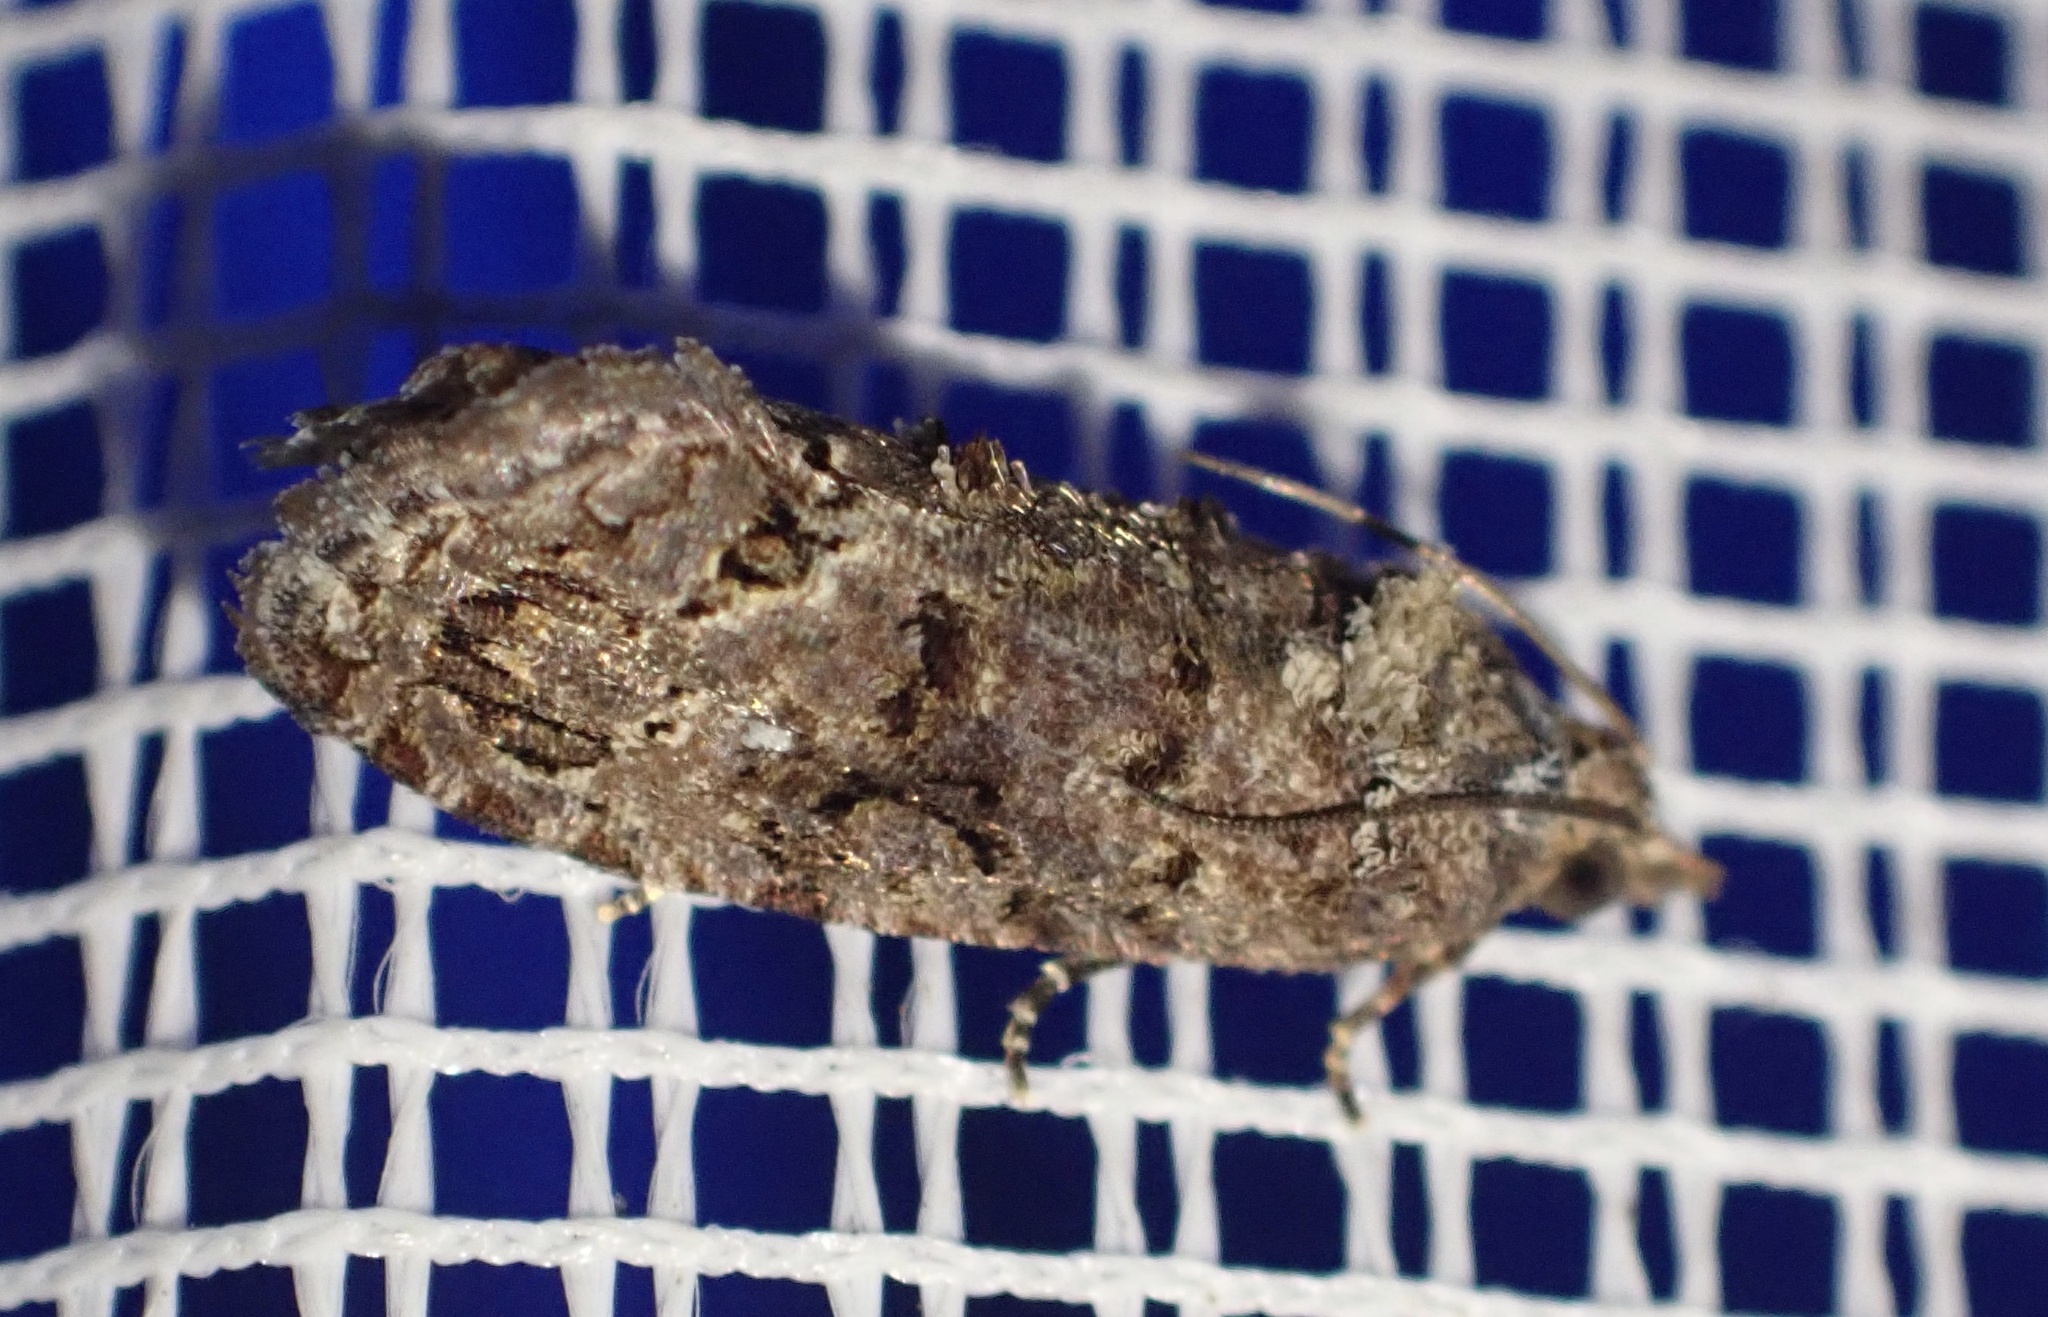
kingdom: Animalia
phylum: Arthropoda
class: Insecta
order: Lepidoptera
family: Tortricidae
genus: Thaumatotibia
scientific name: Thaumatotibia leucotreta
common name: False codling moth
